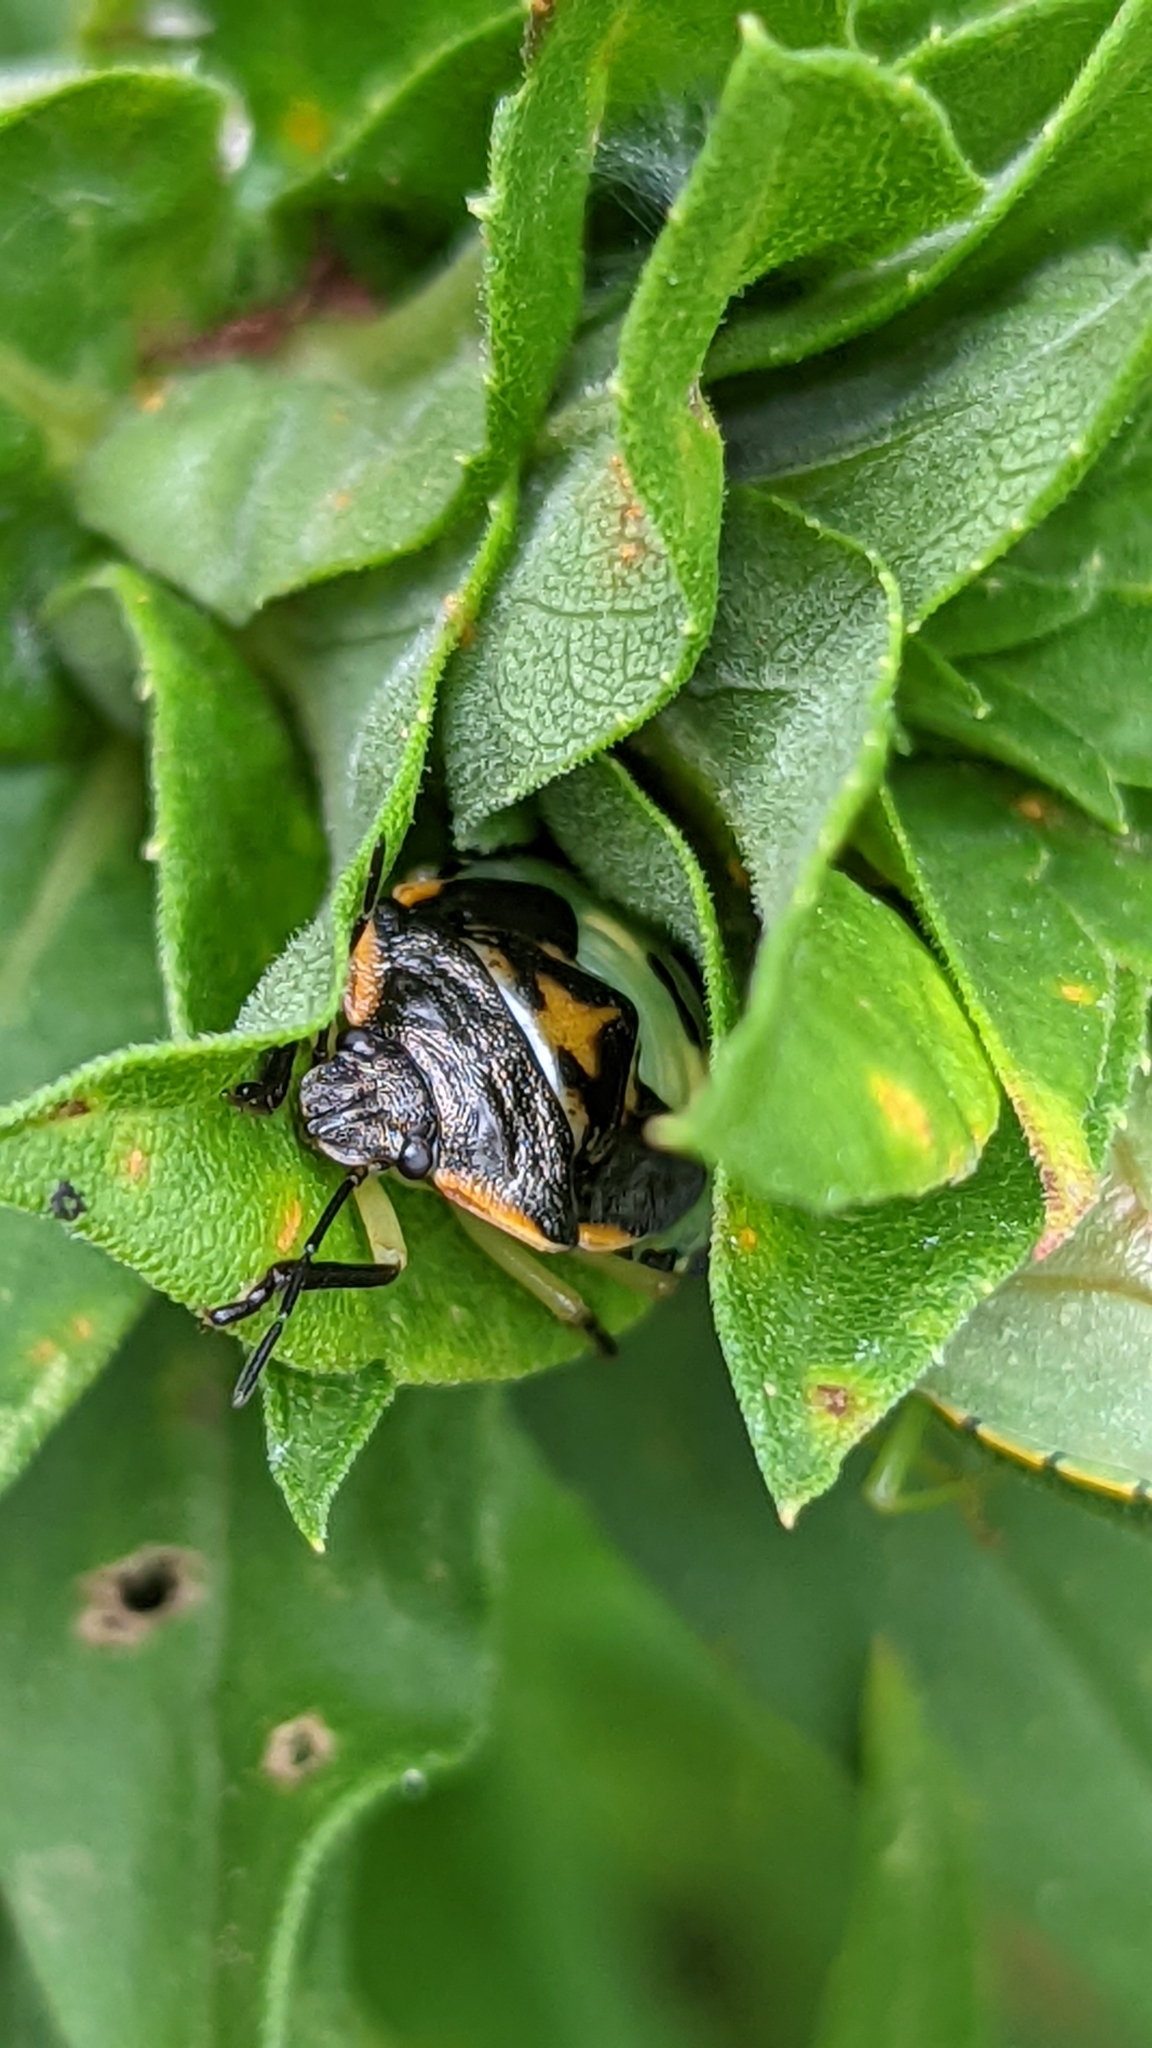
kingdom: Animalia
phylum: Arthropoda
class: Insecta
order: Hemiptera
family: Pentatomidae
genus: Chinavia
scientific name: Chinavia hilaris
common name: Green stink bug
